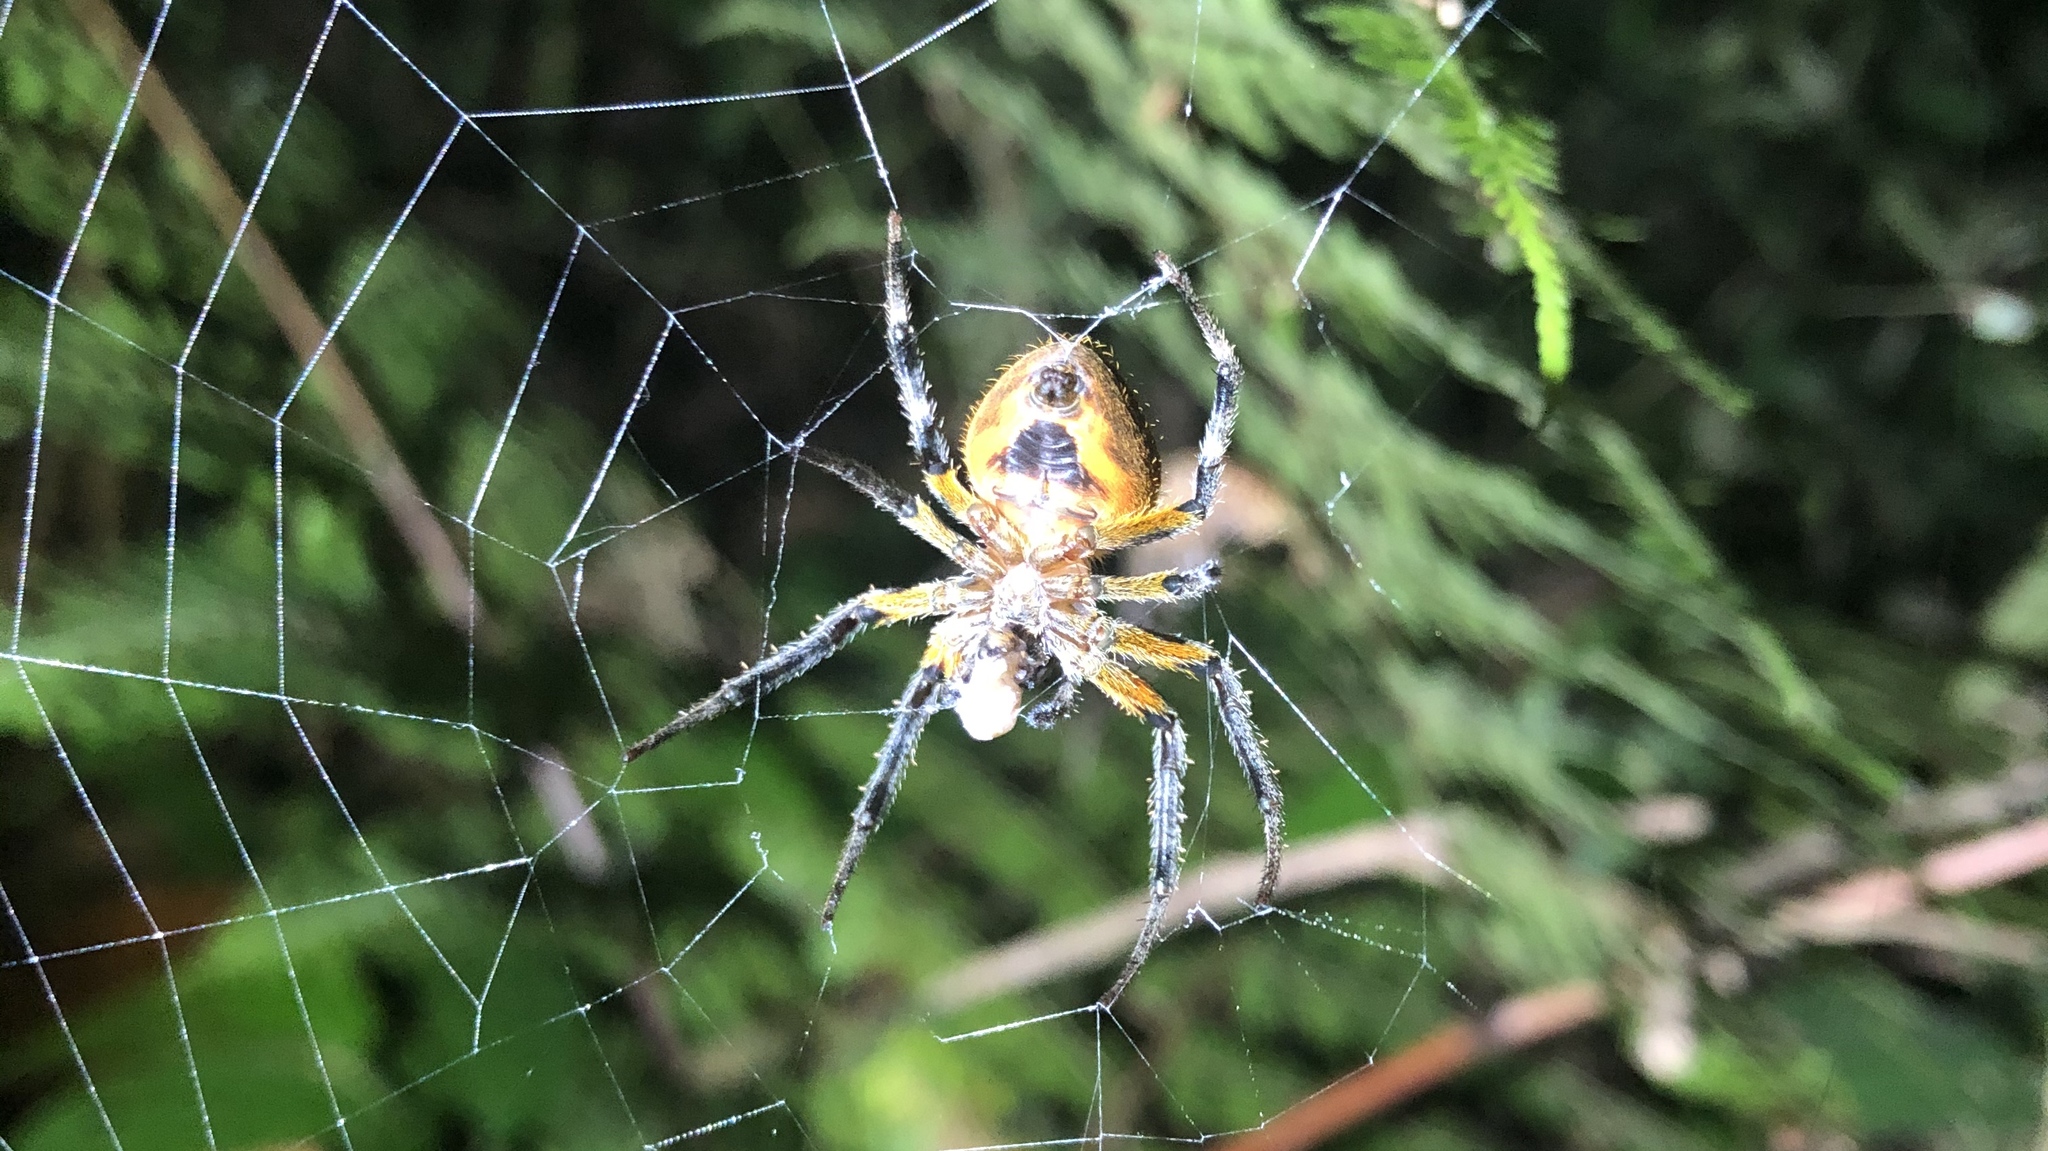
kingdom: Animalia
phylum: Arthropoda
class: Arachnida
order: Araneae
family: Araneidae
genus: Eriophora
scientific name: Eriophora fuliginea
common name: Orb weavers
